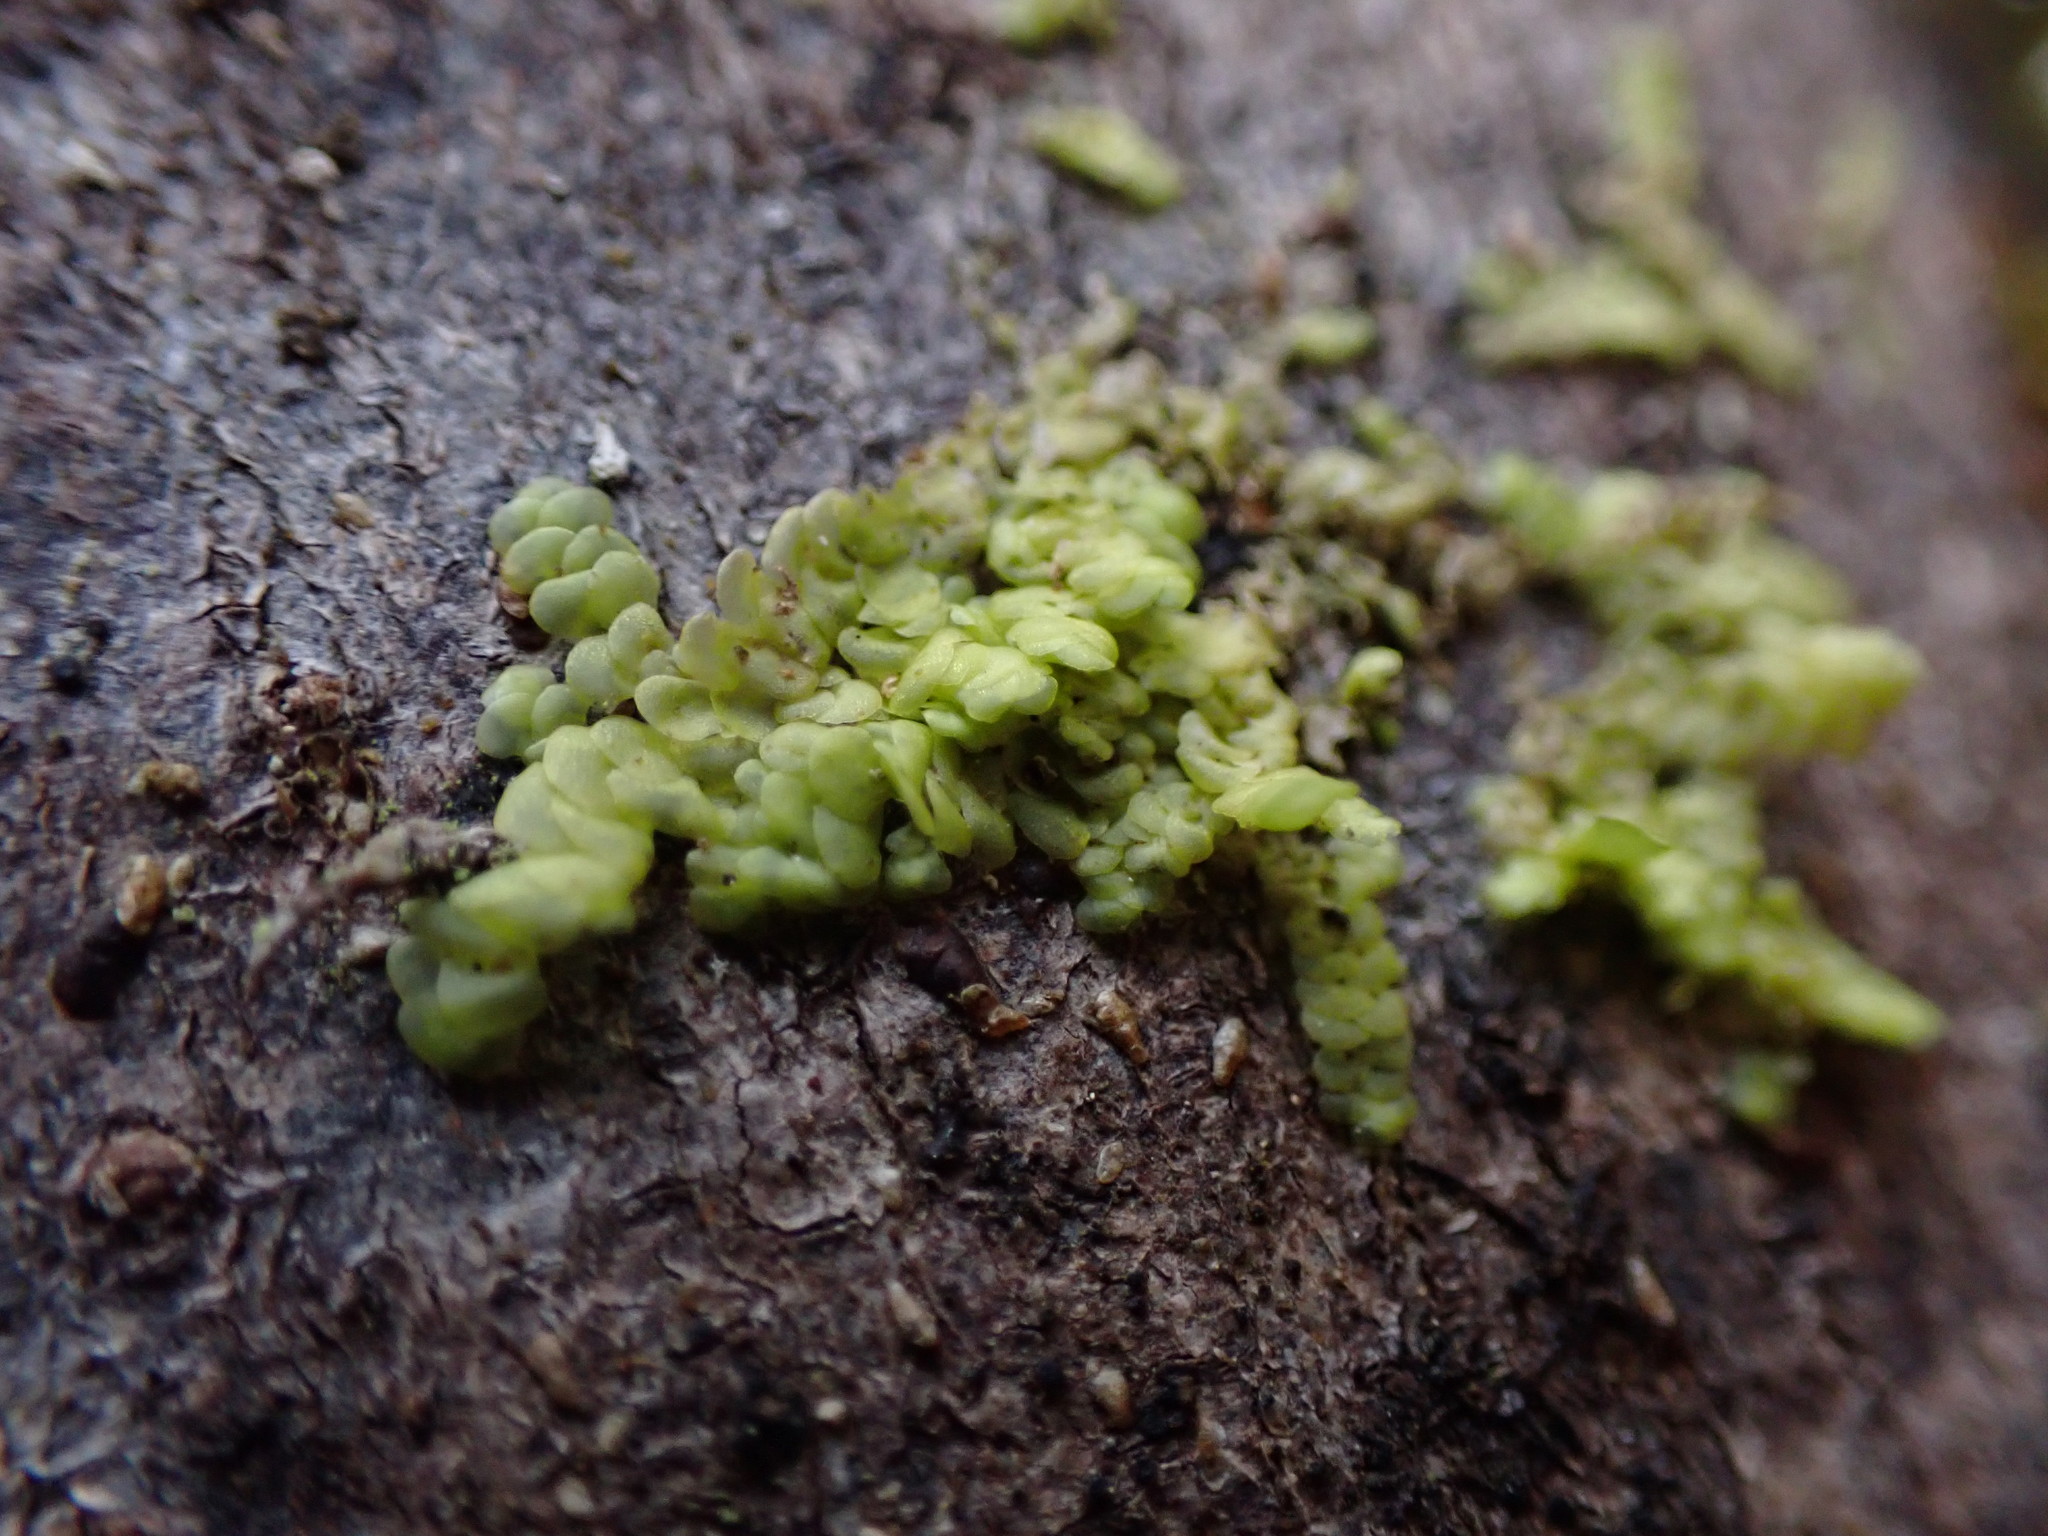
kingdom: Plantae
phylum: Marchantiophyta
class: Jungermanniopsida
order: Porellales
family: Radulaceae
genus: Radula
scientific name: Radula complanata
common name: Flat-leaved scalewort
